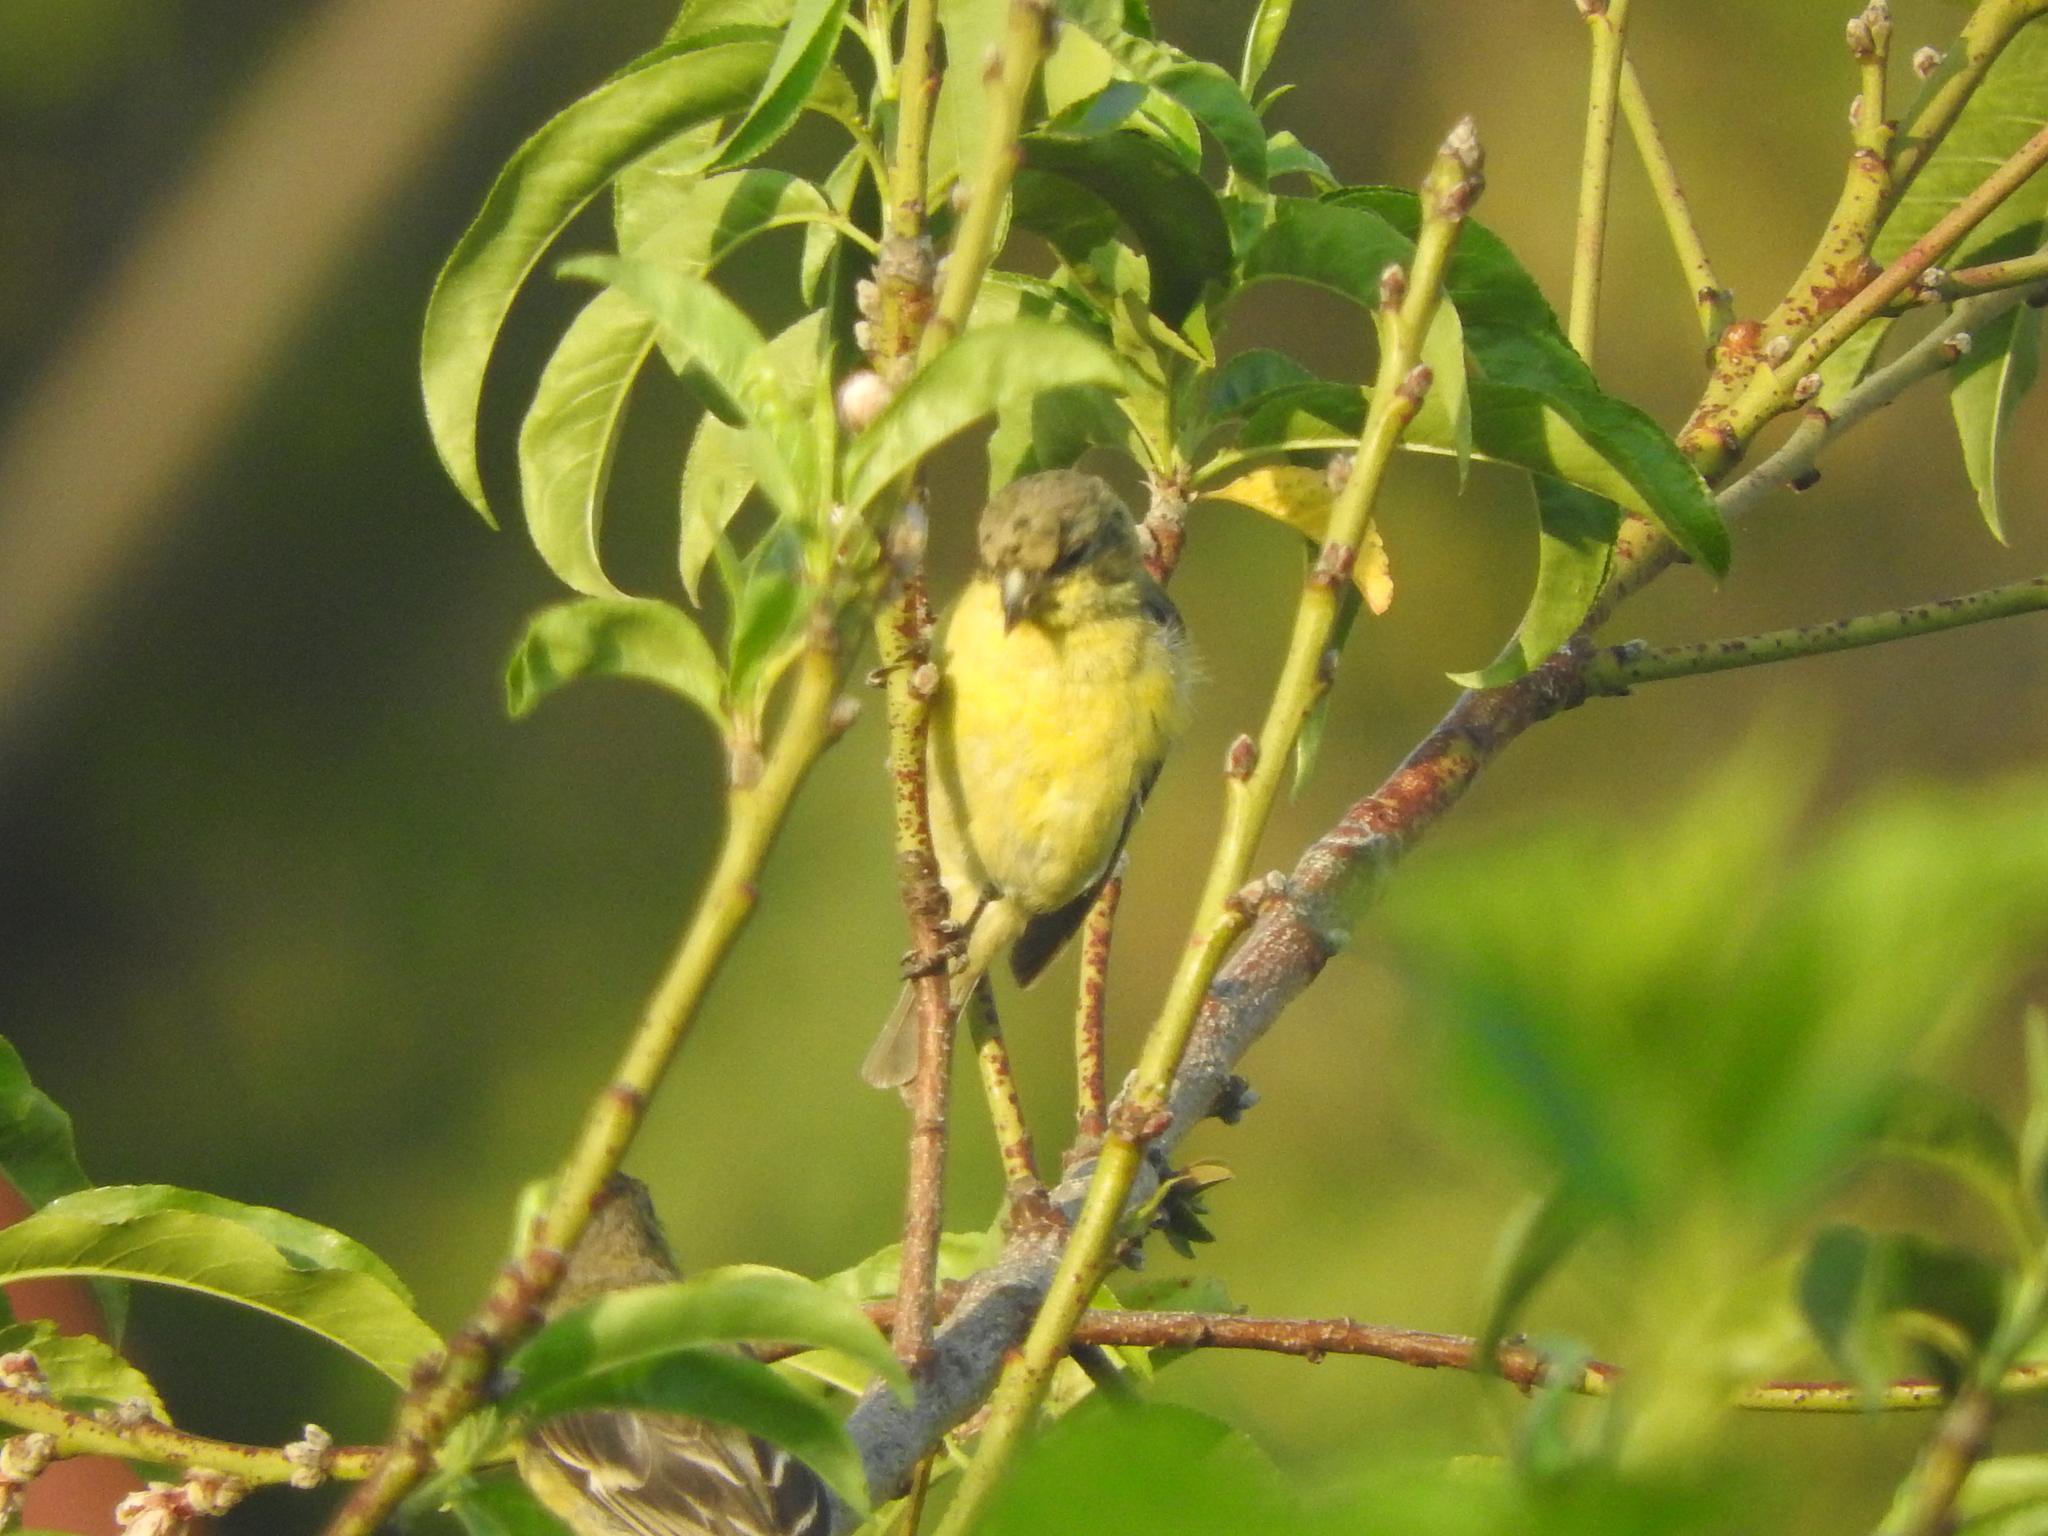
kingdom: Animalia
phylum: Chordata
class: Aves
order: Passeriformes
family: Fringillidae
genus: Spinus
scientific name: Spinus psaltria
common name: Lesser goldfinch
